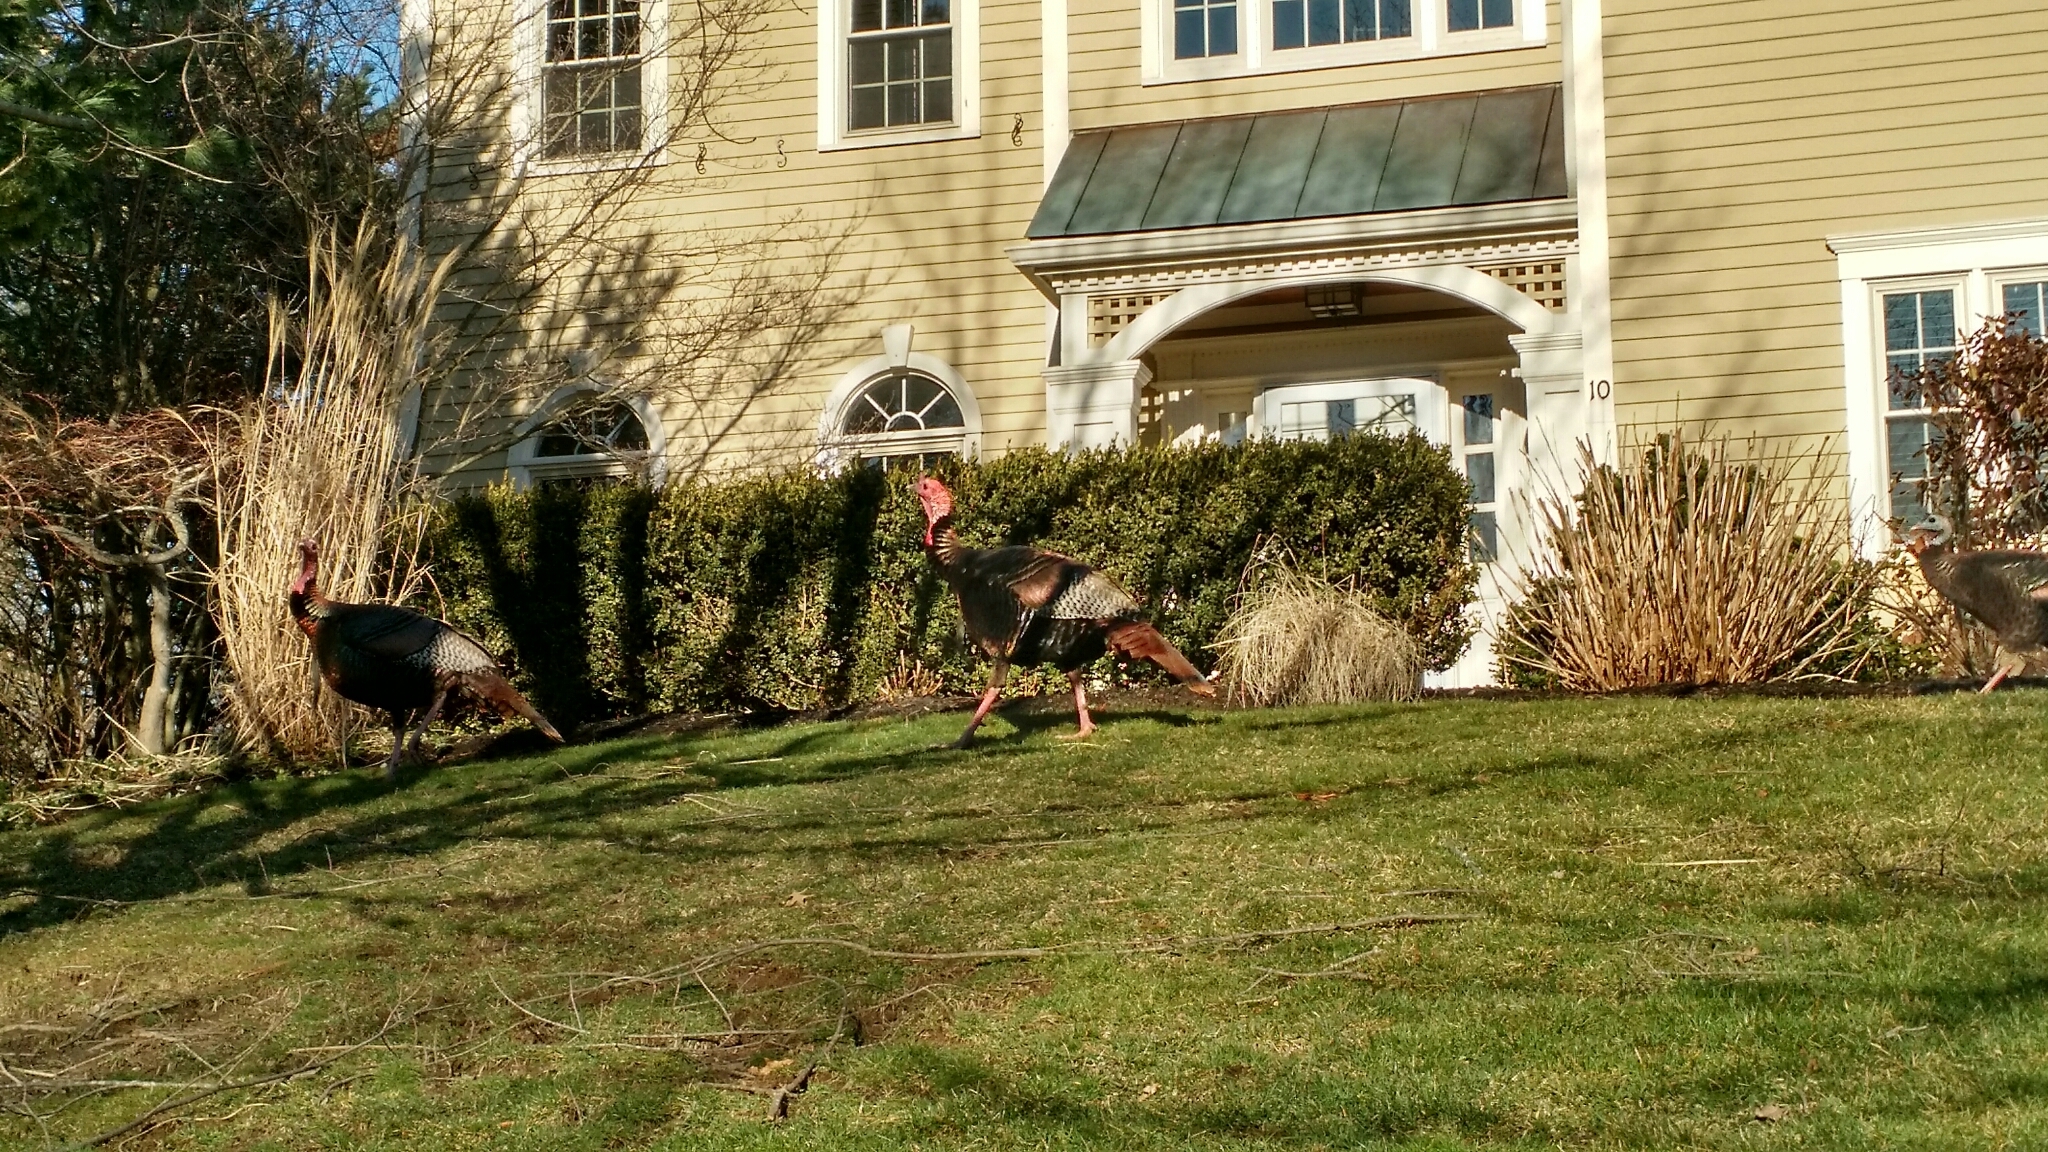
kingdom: Animalia
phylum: Chordata
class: Aves
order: Galliformes
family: Phasianidae
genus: Meleagris
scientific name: Meleagris gallopavo
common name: Wild turkey
